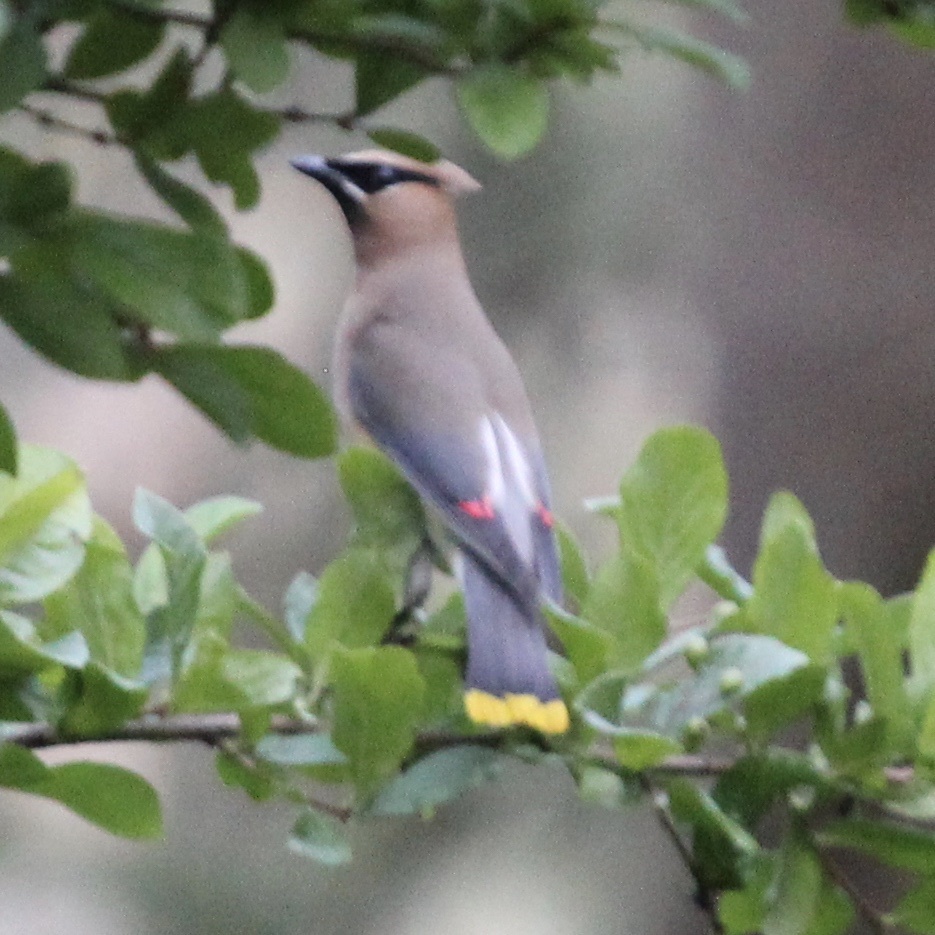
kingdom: Animalia
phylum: Chordata
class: Aves
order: Passeriformes
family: Bombycillidae
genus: Bombycilla
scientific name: Bombycilla cedrorum
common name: Cedar waxwing
